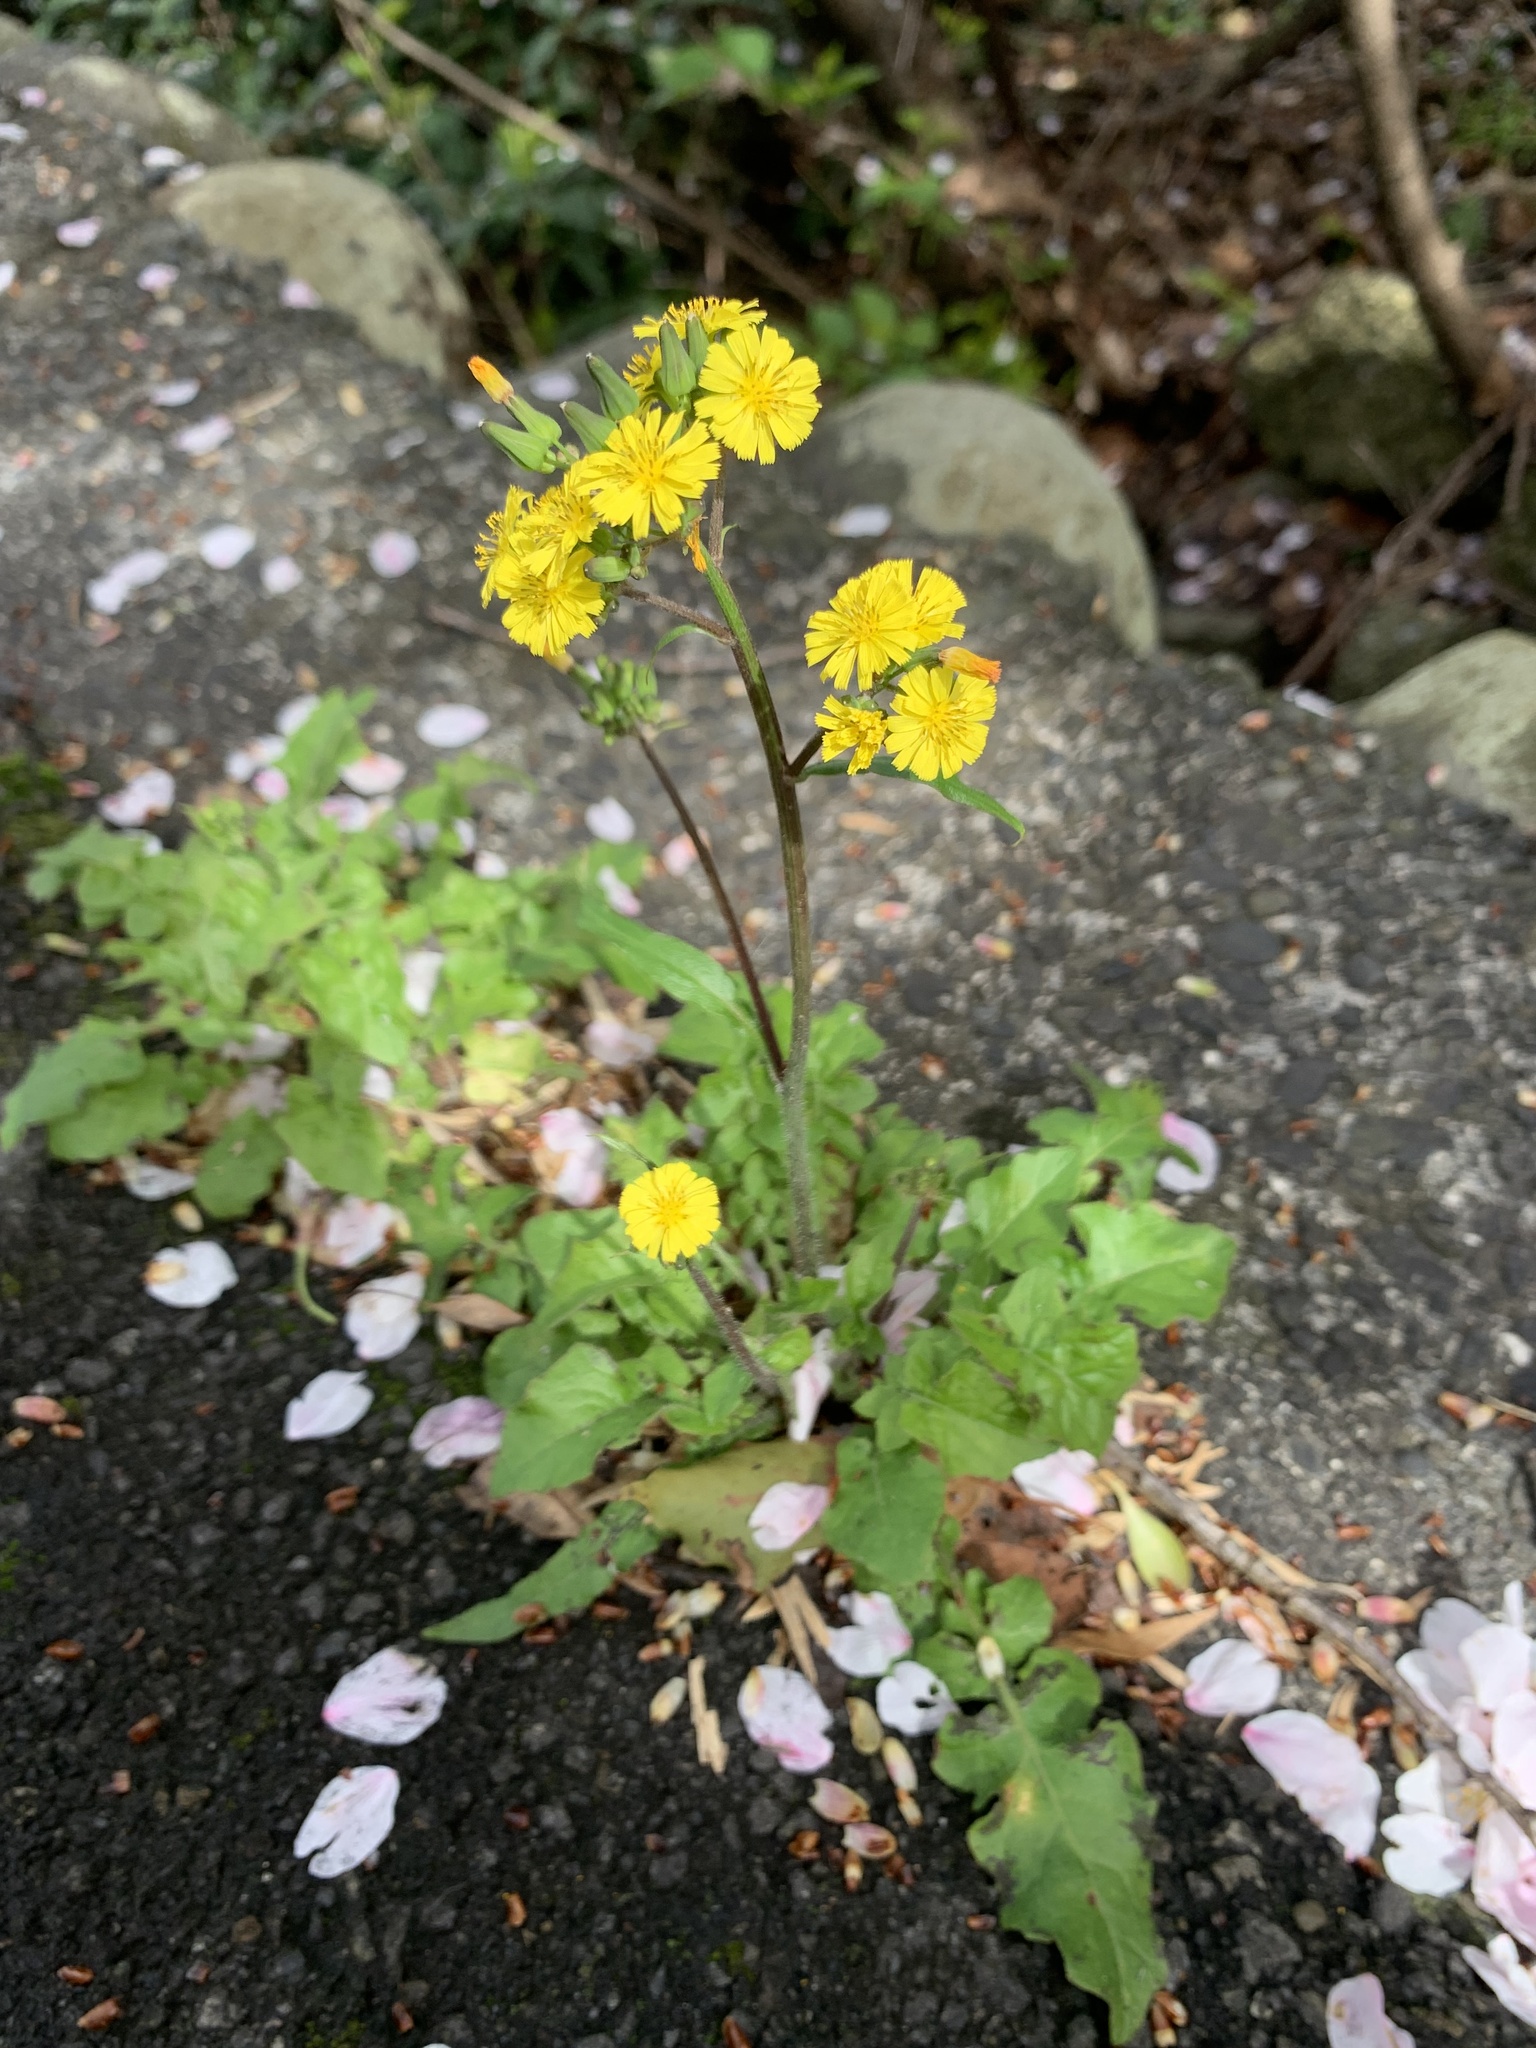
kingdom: Plantae
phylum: Tracheophyta
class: Magnoliopsida
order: Asterales
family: Asteraceae
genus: Youngia
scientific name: Youngia japonica
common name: Oriental false hawksbeard
